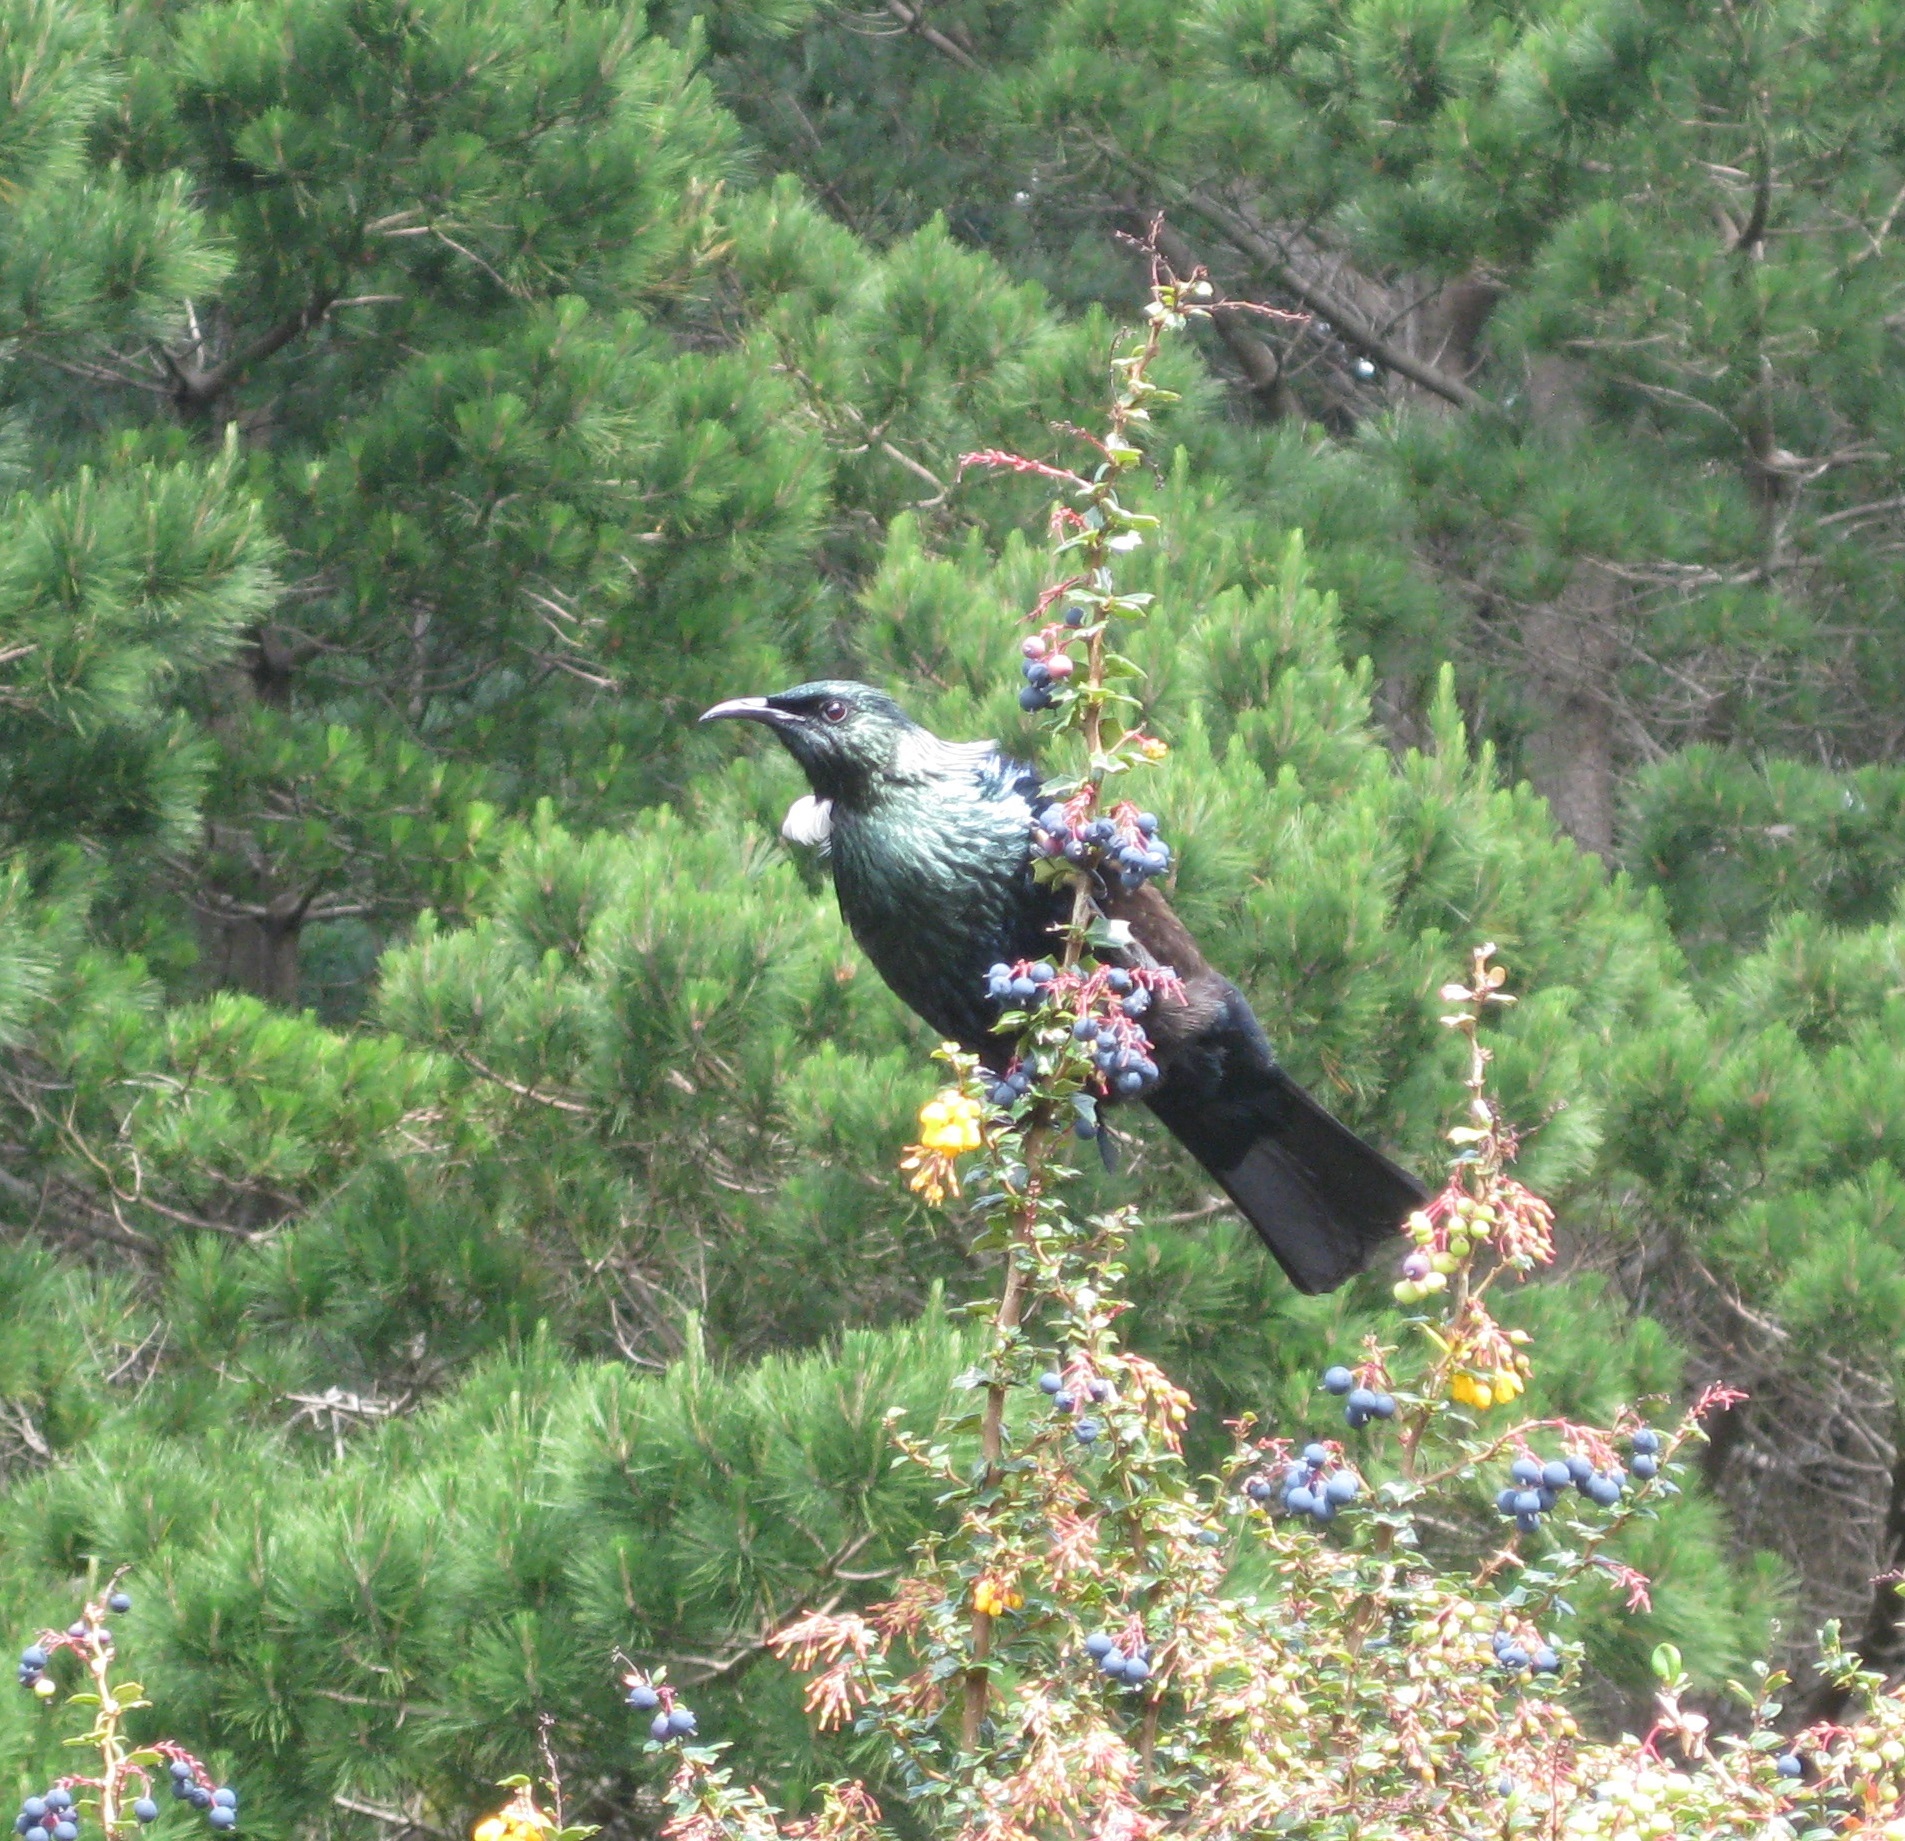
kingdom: Animalia
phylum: Chordata
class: Aves
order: Passeriformes
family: Meliphagidae
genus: Prosthemadera
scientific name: Prosthemadera novaeseelandiae
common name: Tui
